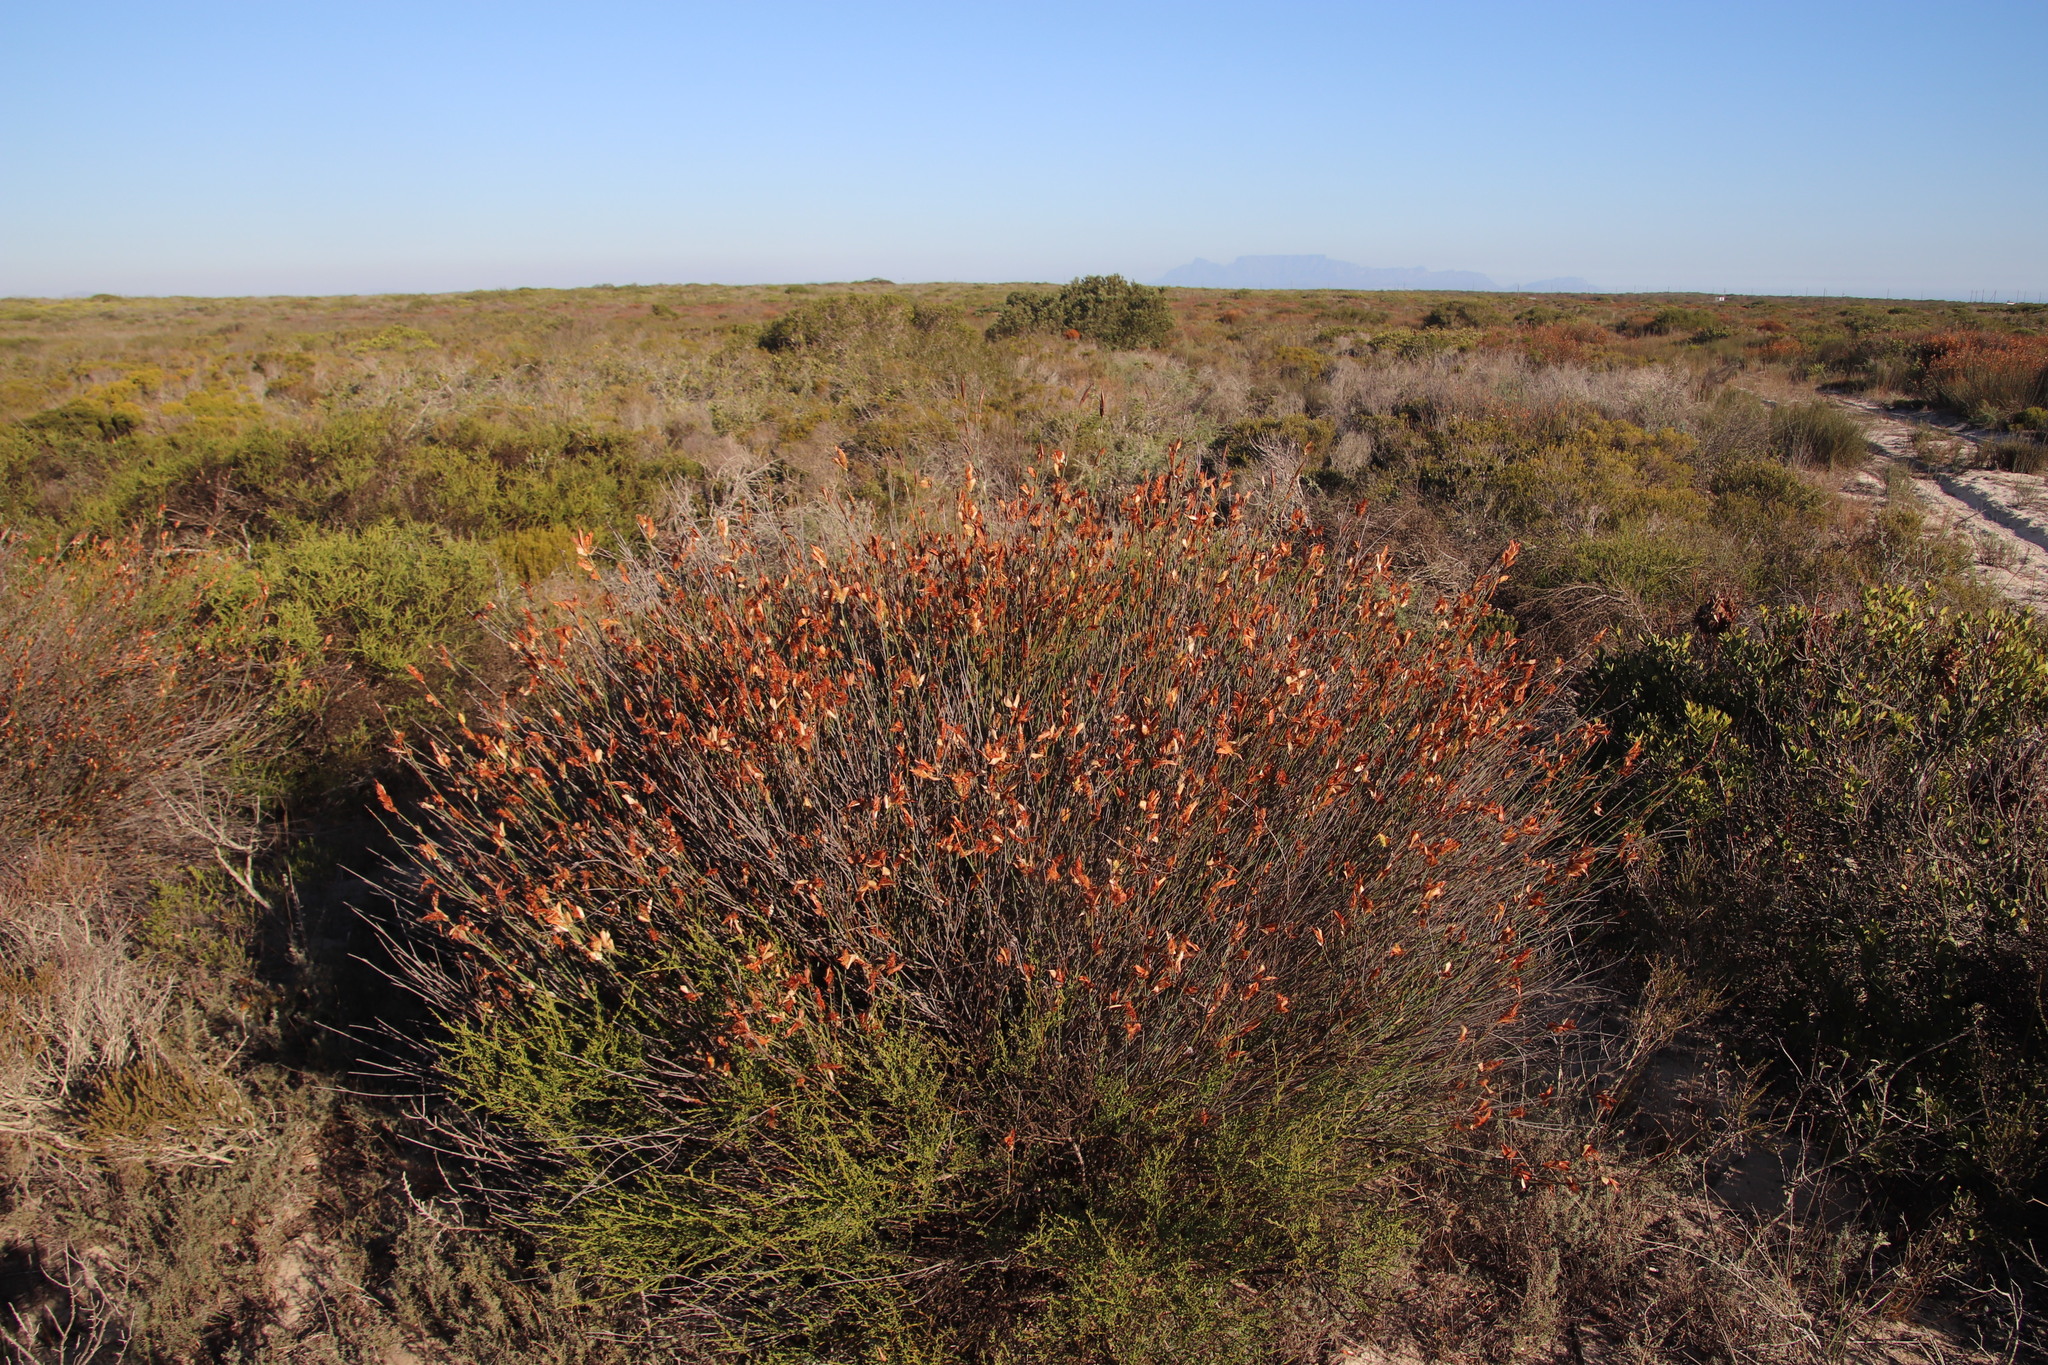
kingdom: Plantae
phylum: Tracheophyta
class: Liliopsida
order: Poales
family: Restionaceae
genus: Willdenowia
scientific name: Willdenowia incurvata
